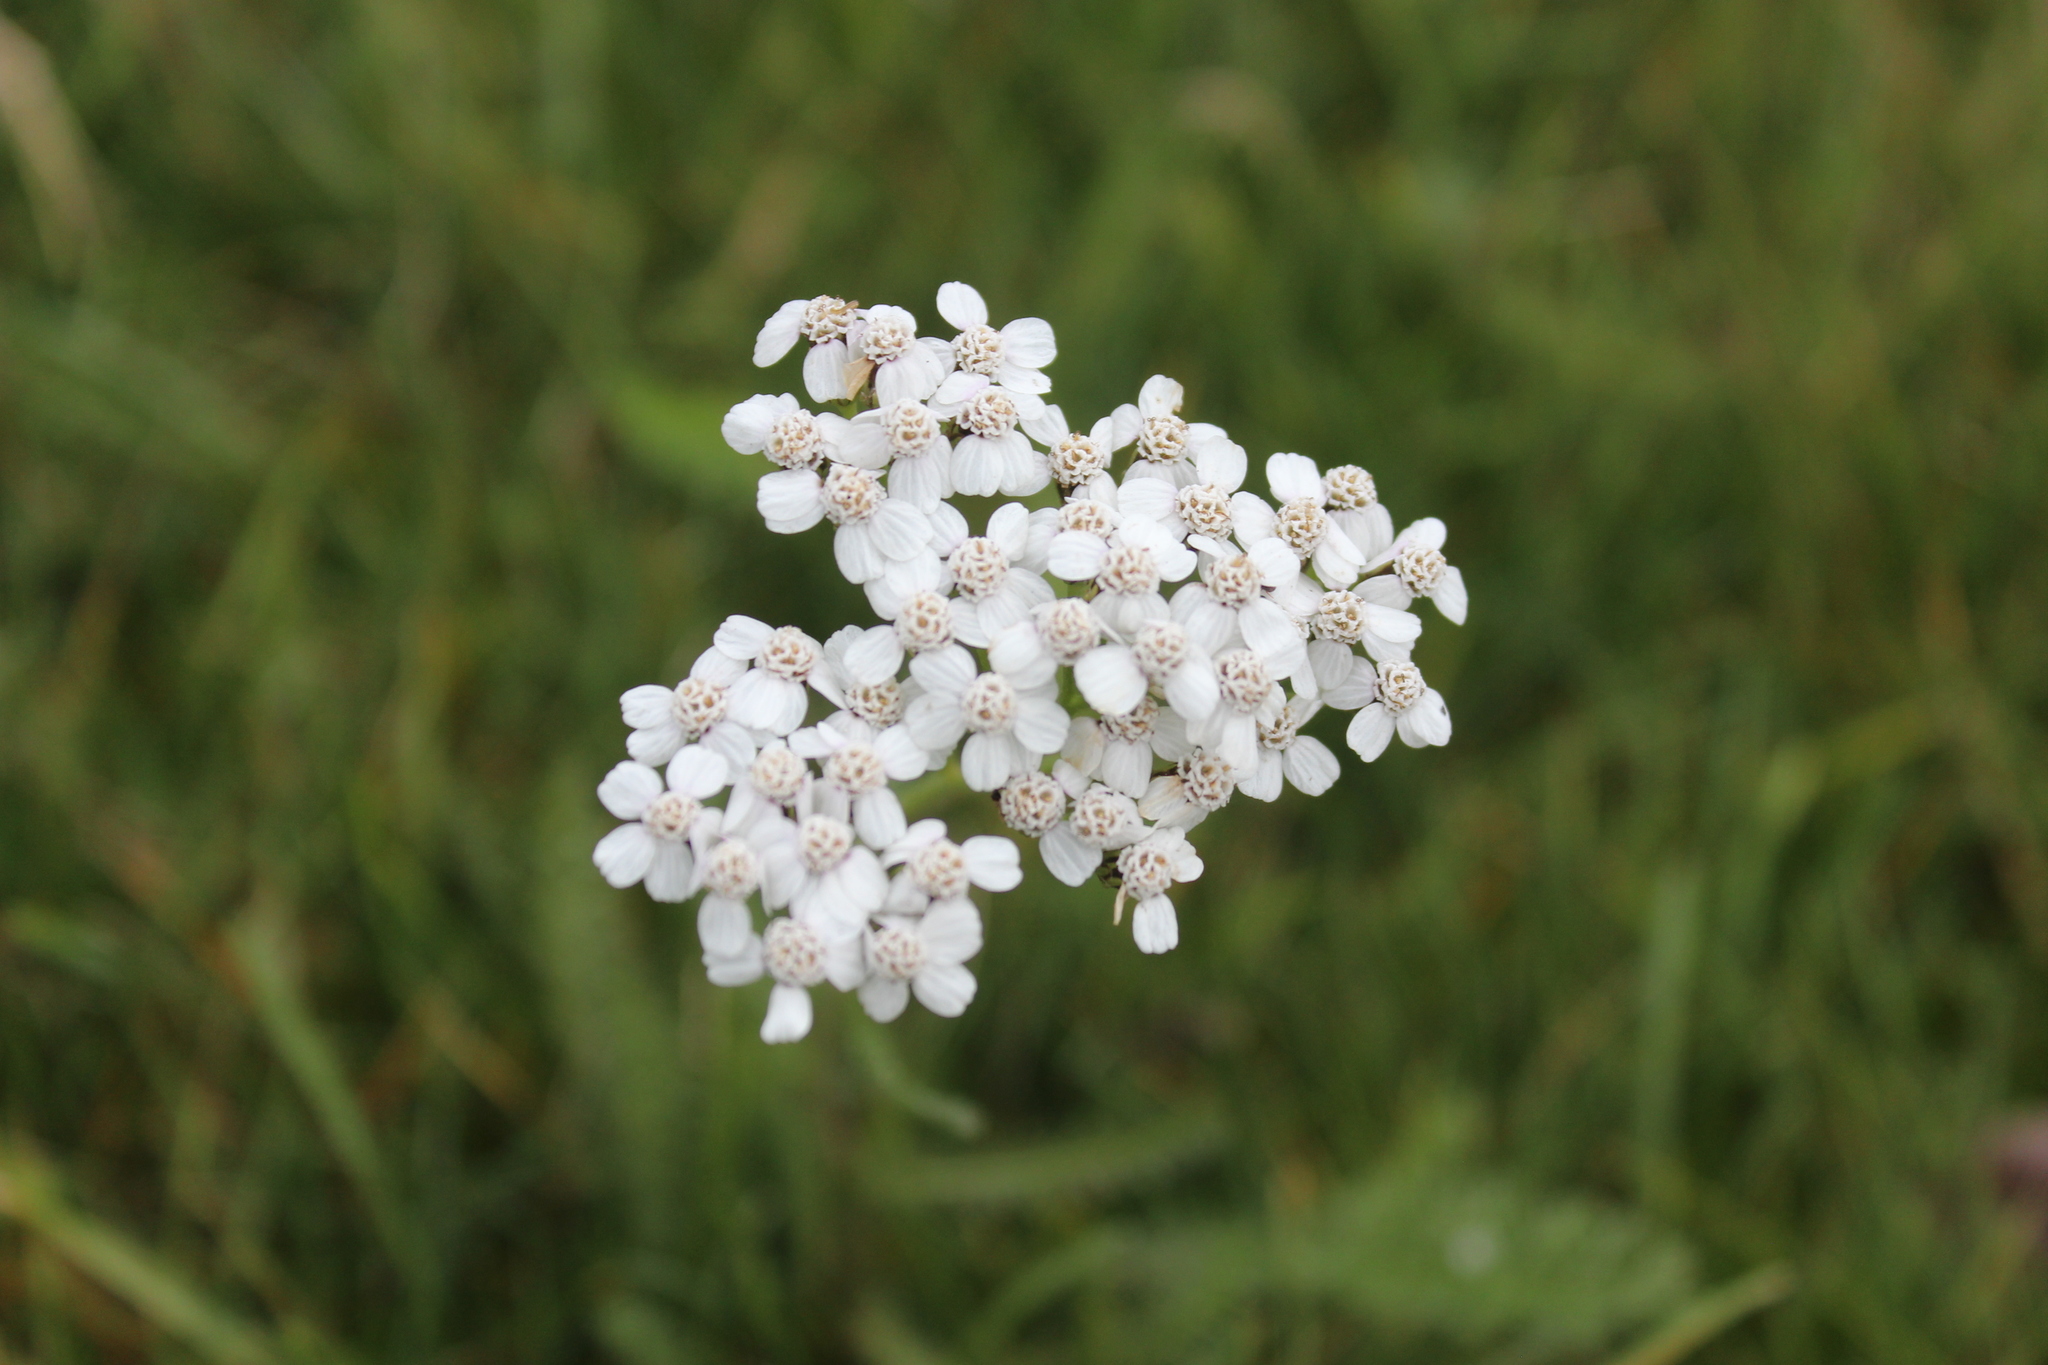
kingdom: Plantae
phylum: Tracheophyta
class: Magnoliopsida
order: Asterales
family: Asteraceae
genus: Achillea
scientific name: Achillea millefolium
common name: Yarrow
